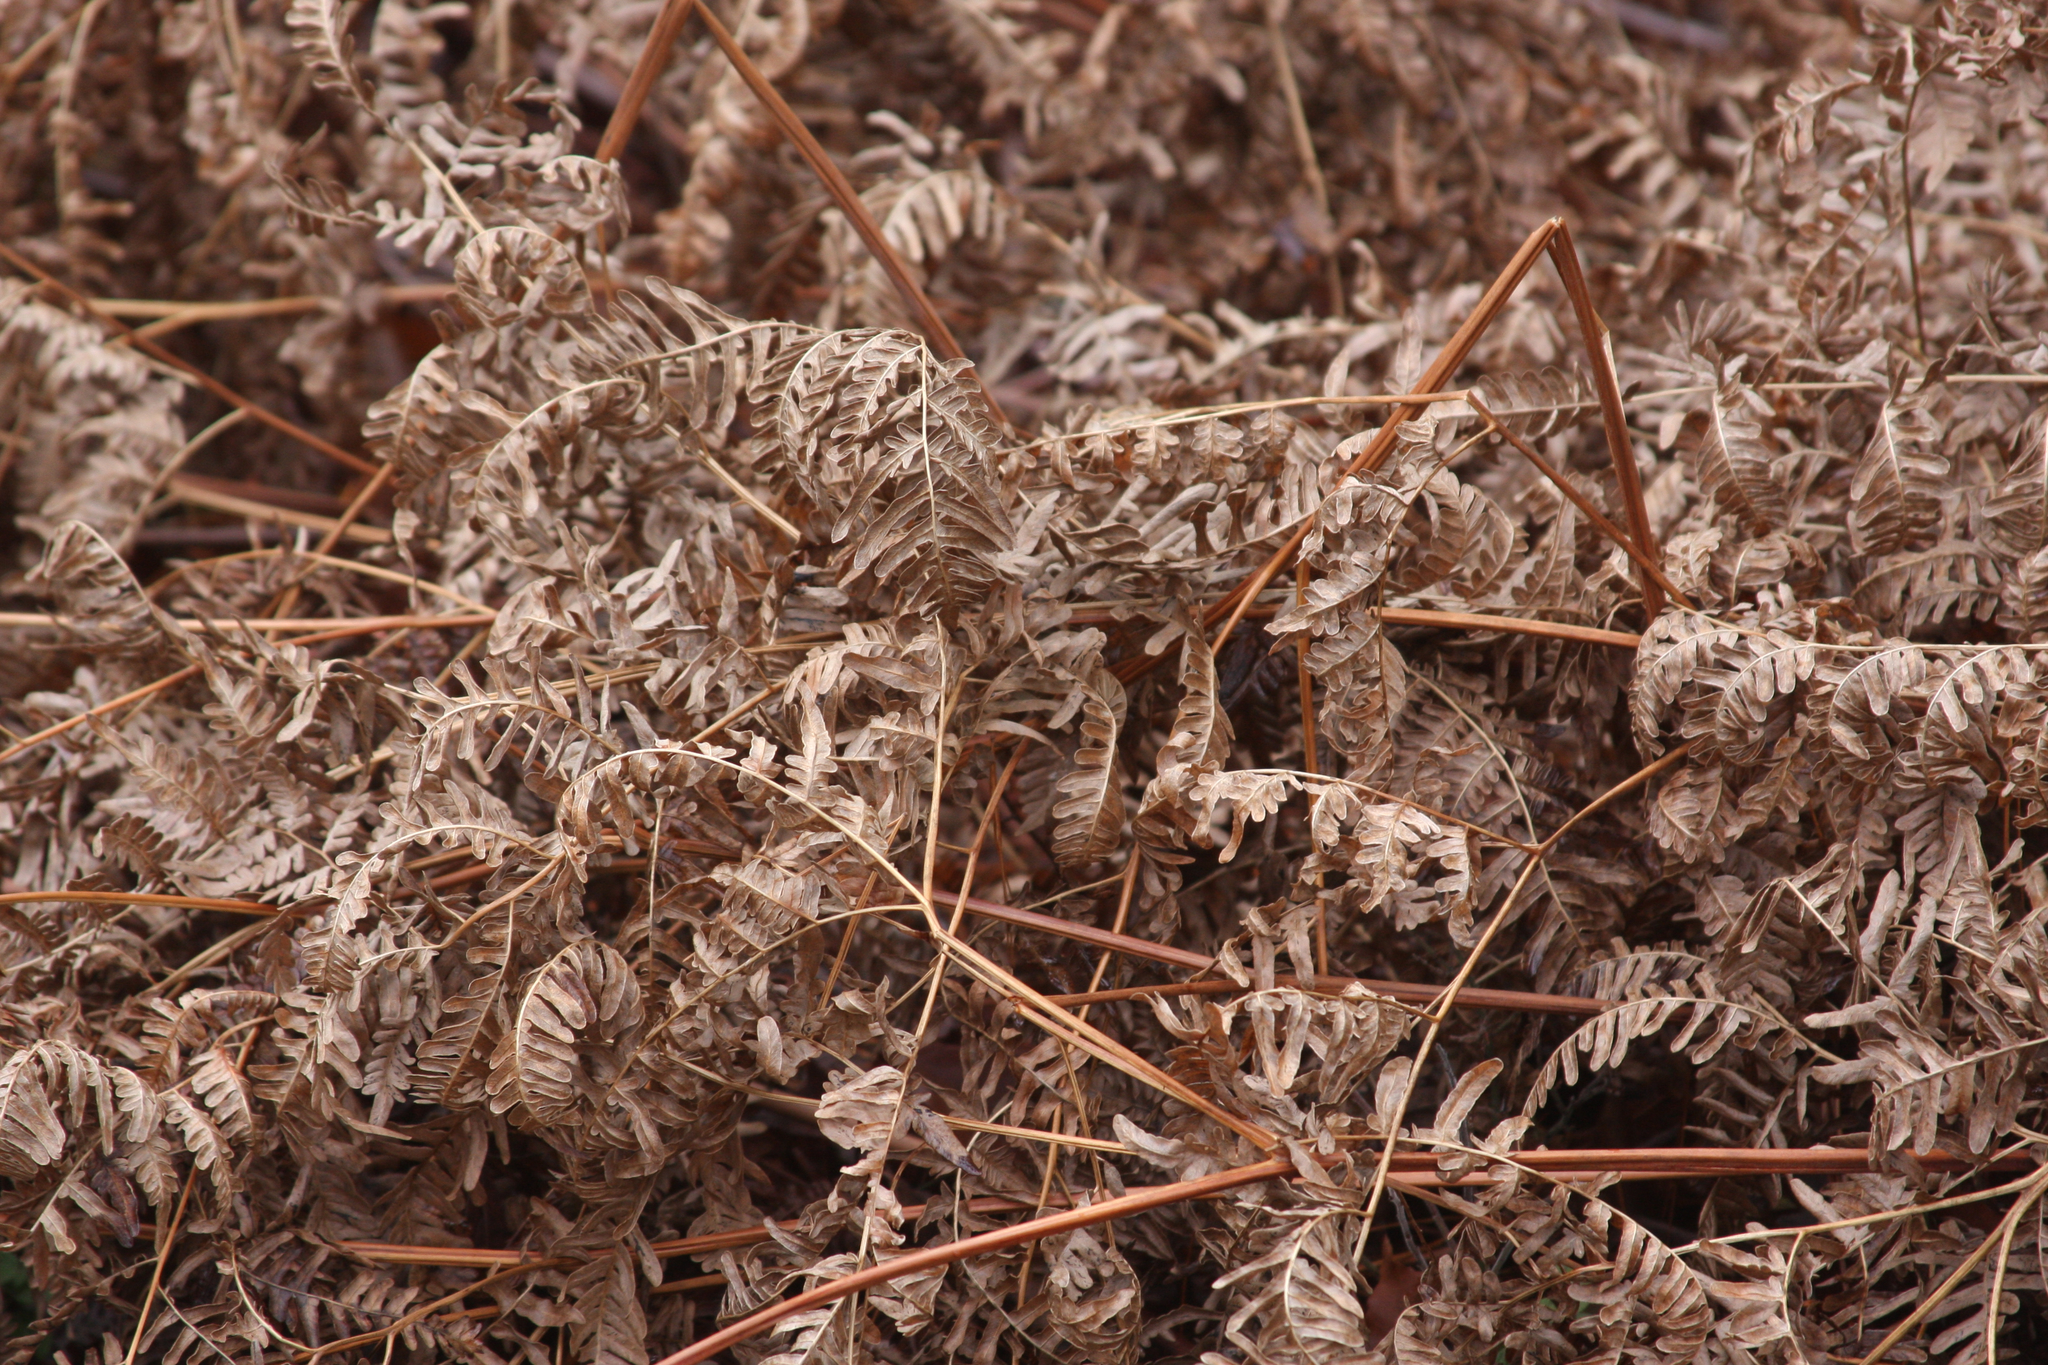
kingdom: Plantae
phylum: Tracheophyta
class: Polypodiopsida
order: Polypodiales
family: Dennstaedtiaceae
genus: Pteridium
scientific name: Pteridium aquilinum
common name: Bracken
